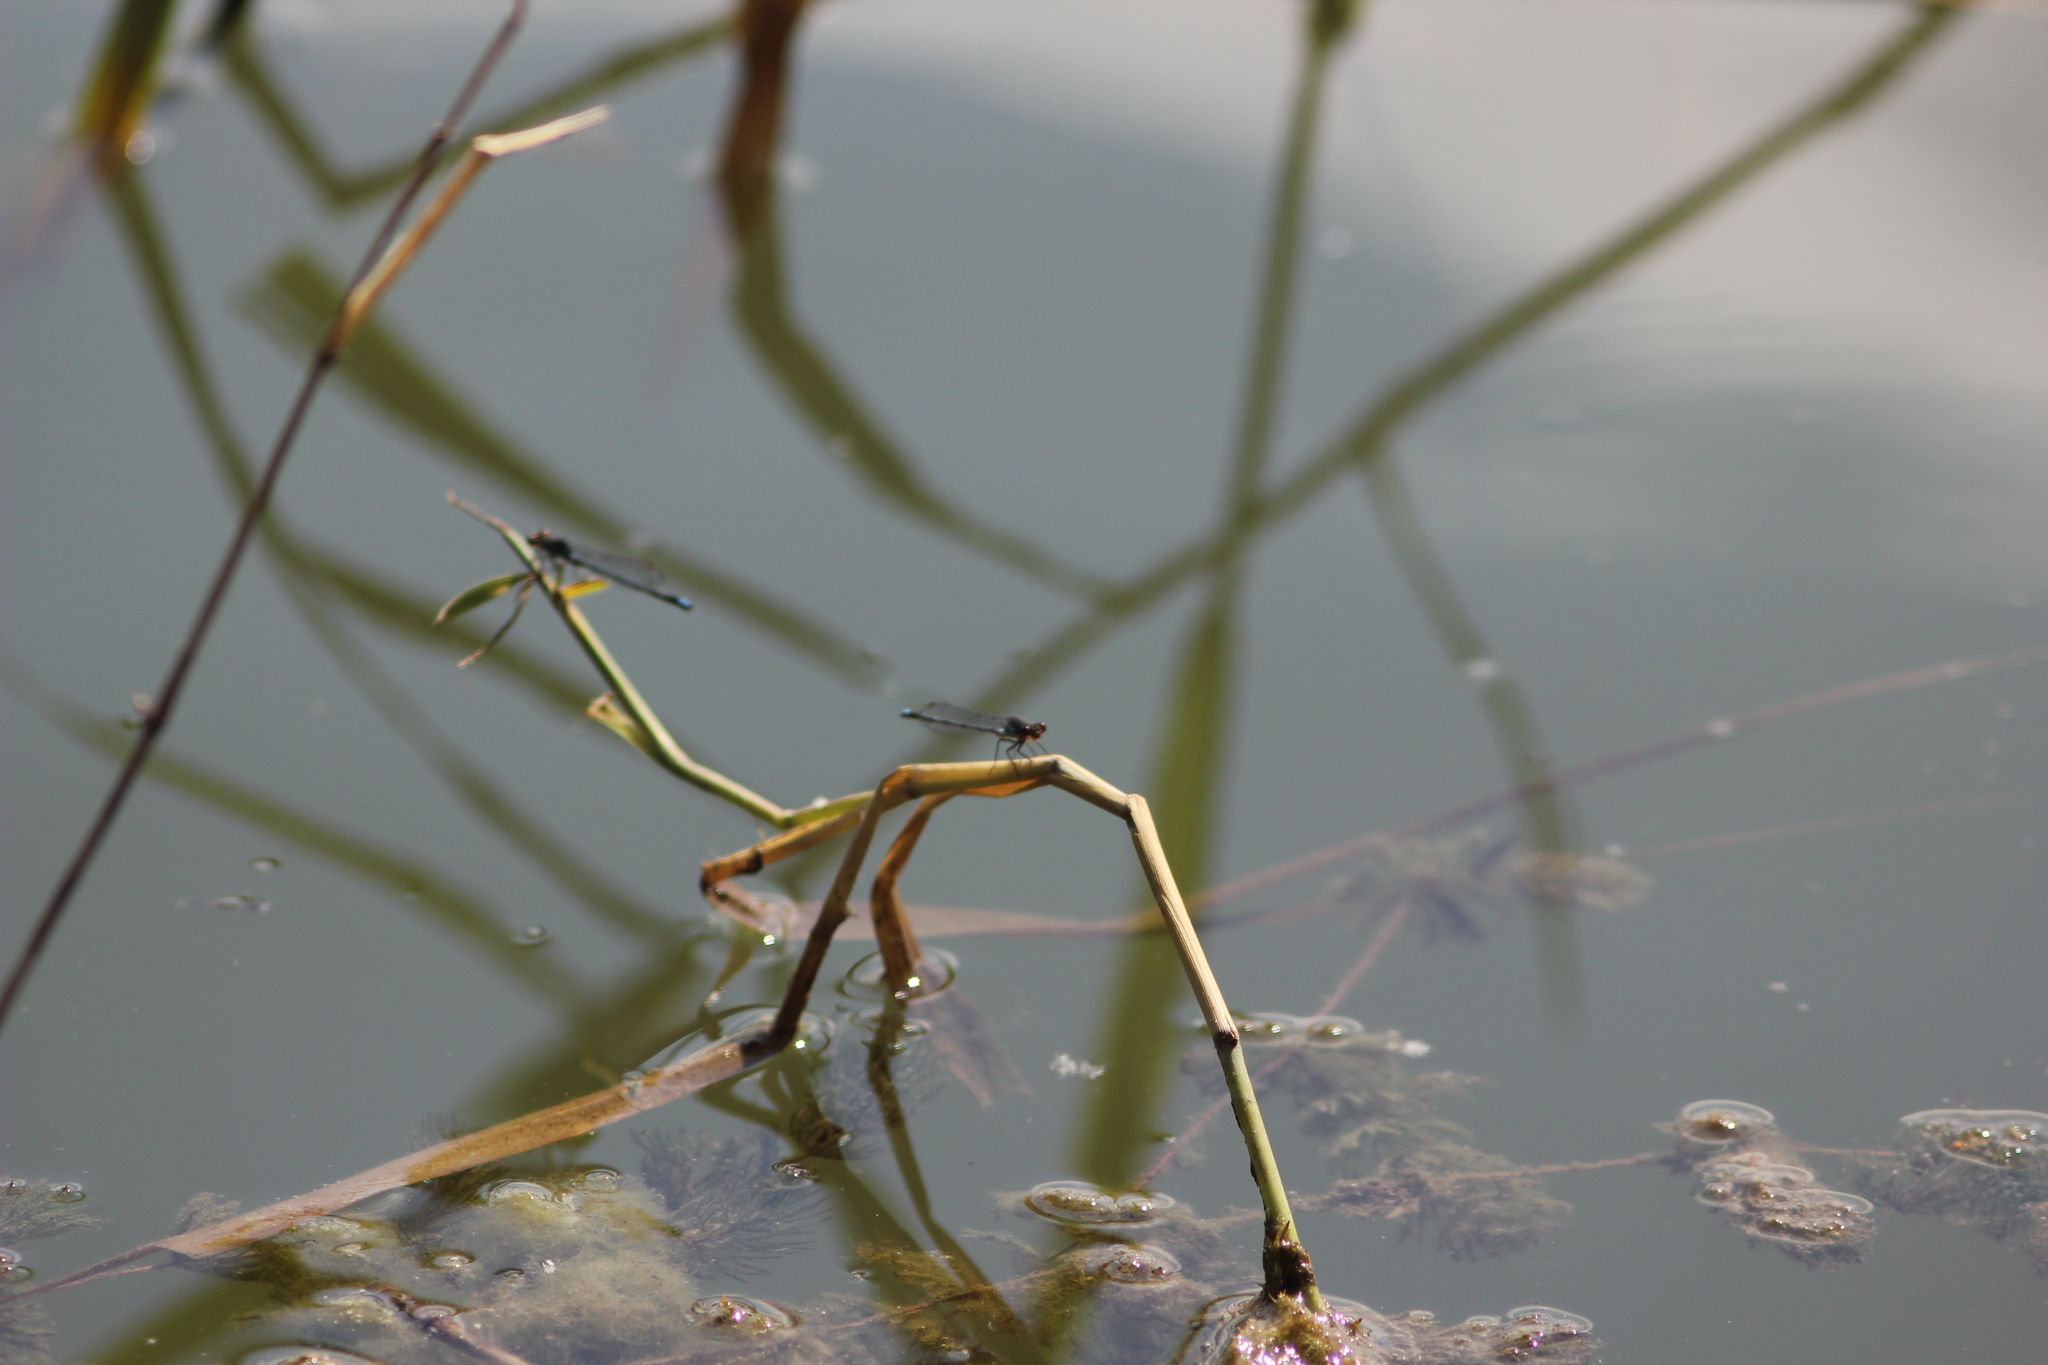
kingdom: Animalia
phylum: Arthropoda
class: Insecta
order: Odonata
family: Coenagrionidae
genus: Erythromma
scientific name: Erythromma najas
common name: Red-eyed damselfly
